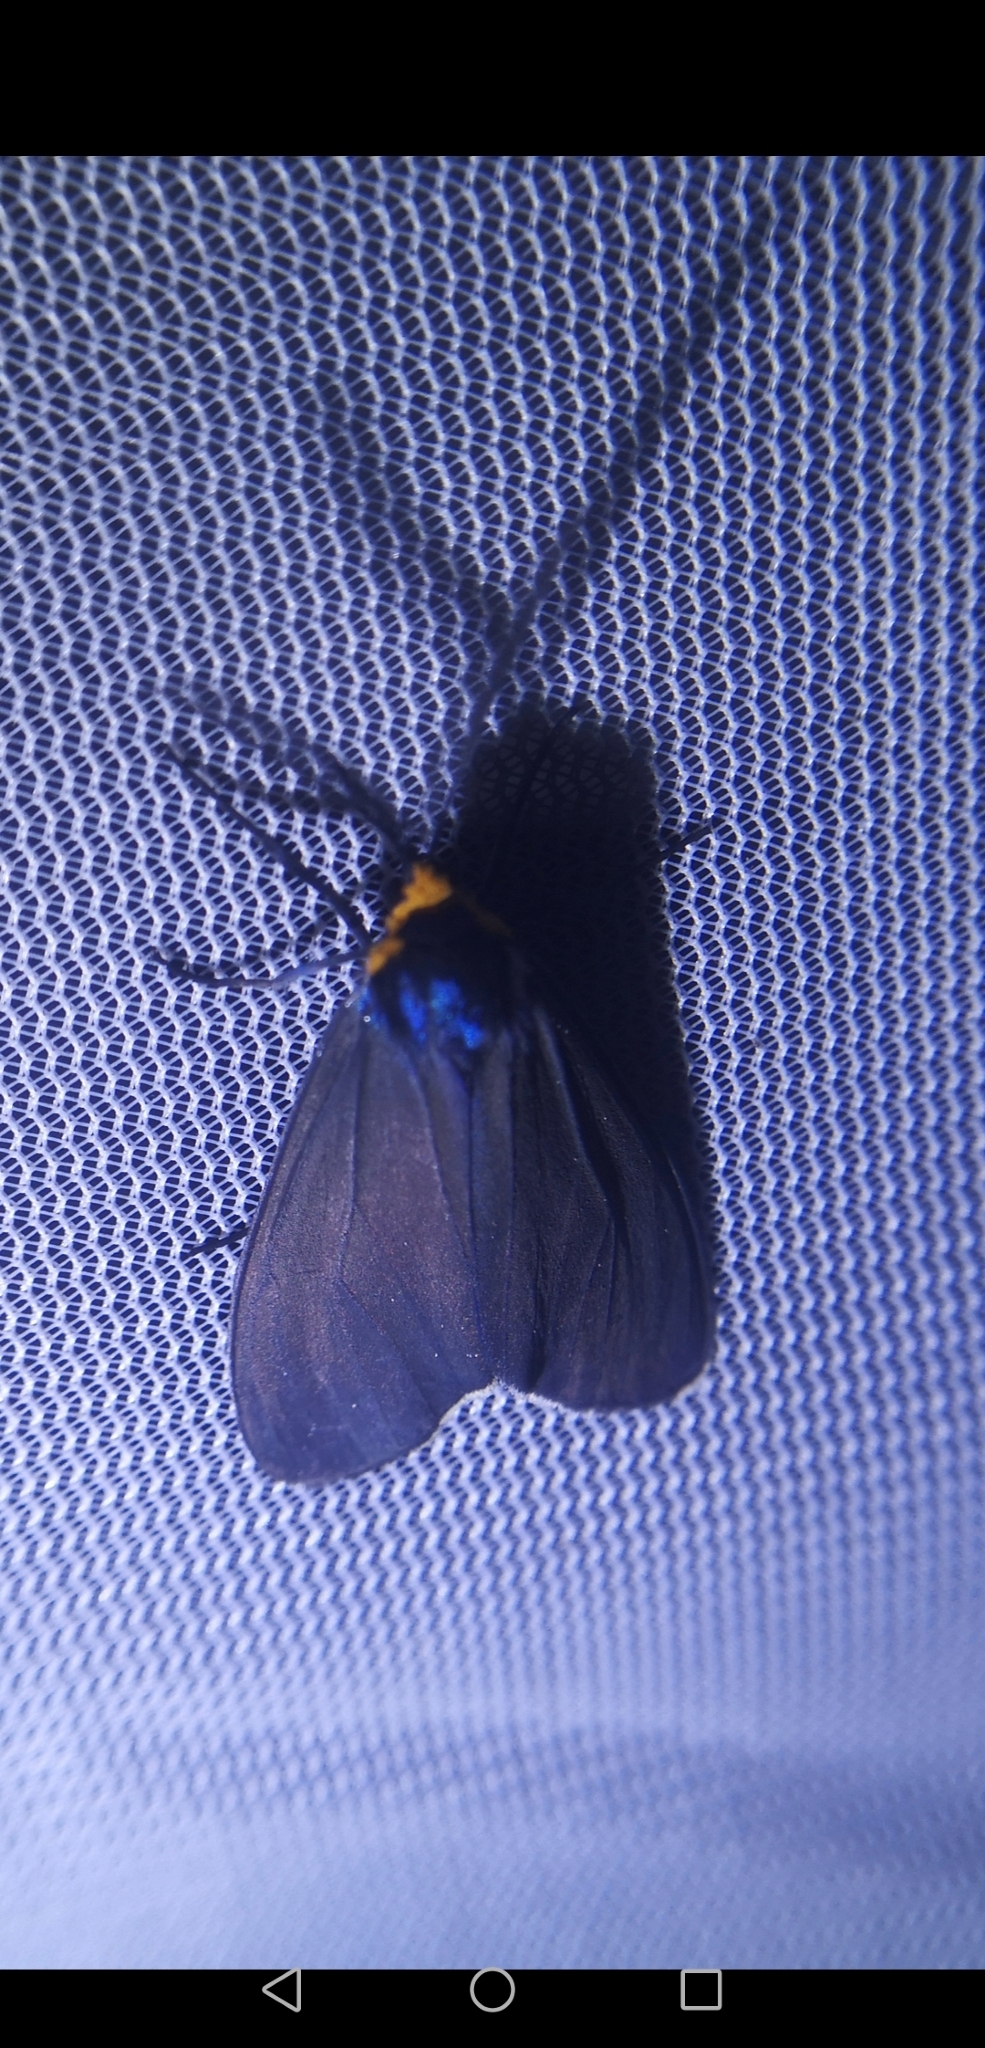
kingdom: Animalia
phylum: Arthropoda
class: Insecta
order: Lepidoptera
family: Erebidae
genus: Ctenucha
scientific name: Ctenucha virginica
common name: Virginia ctenucha moth
